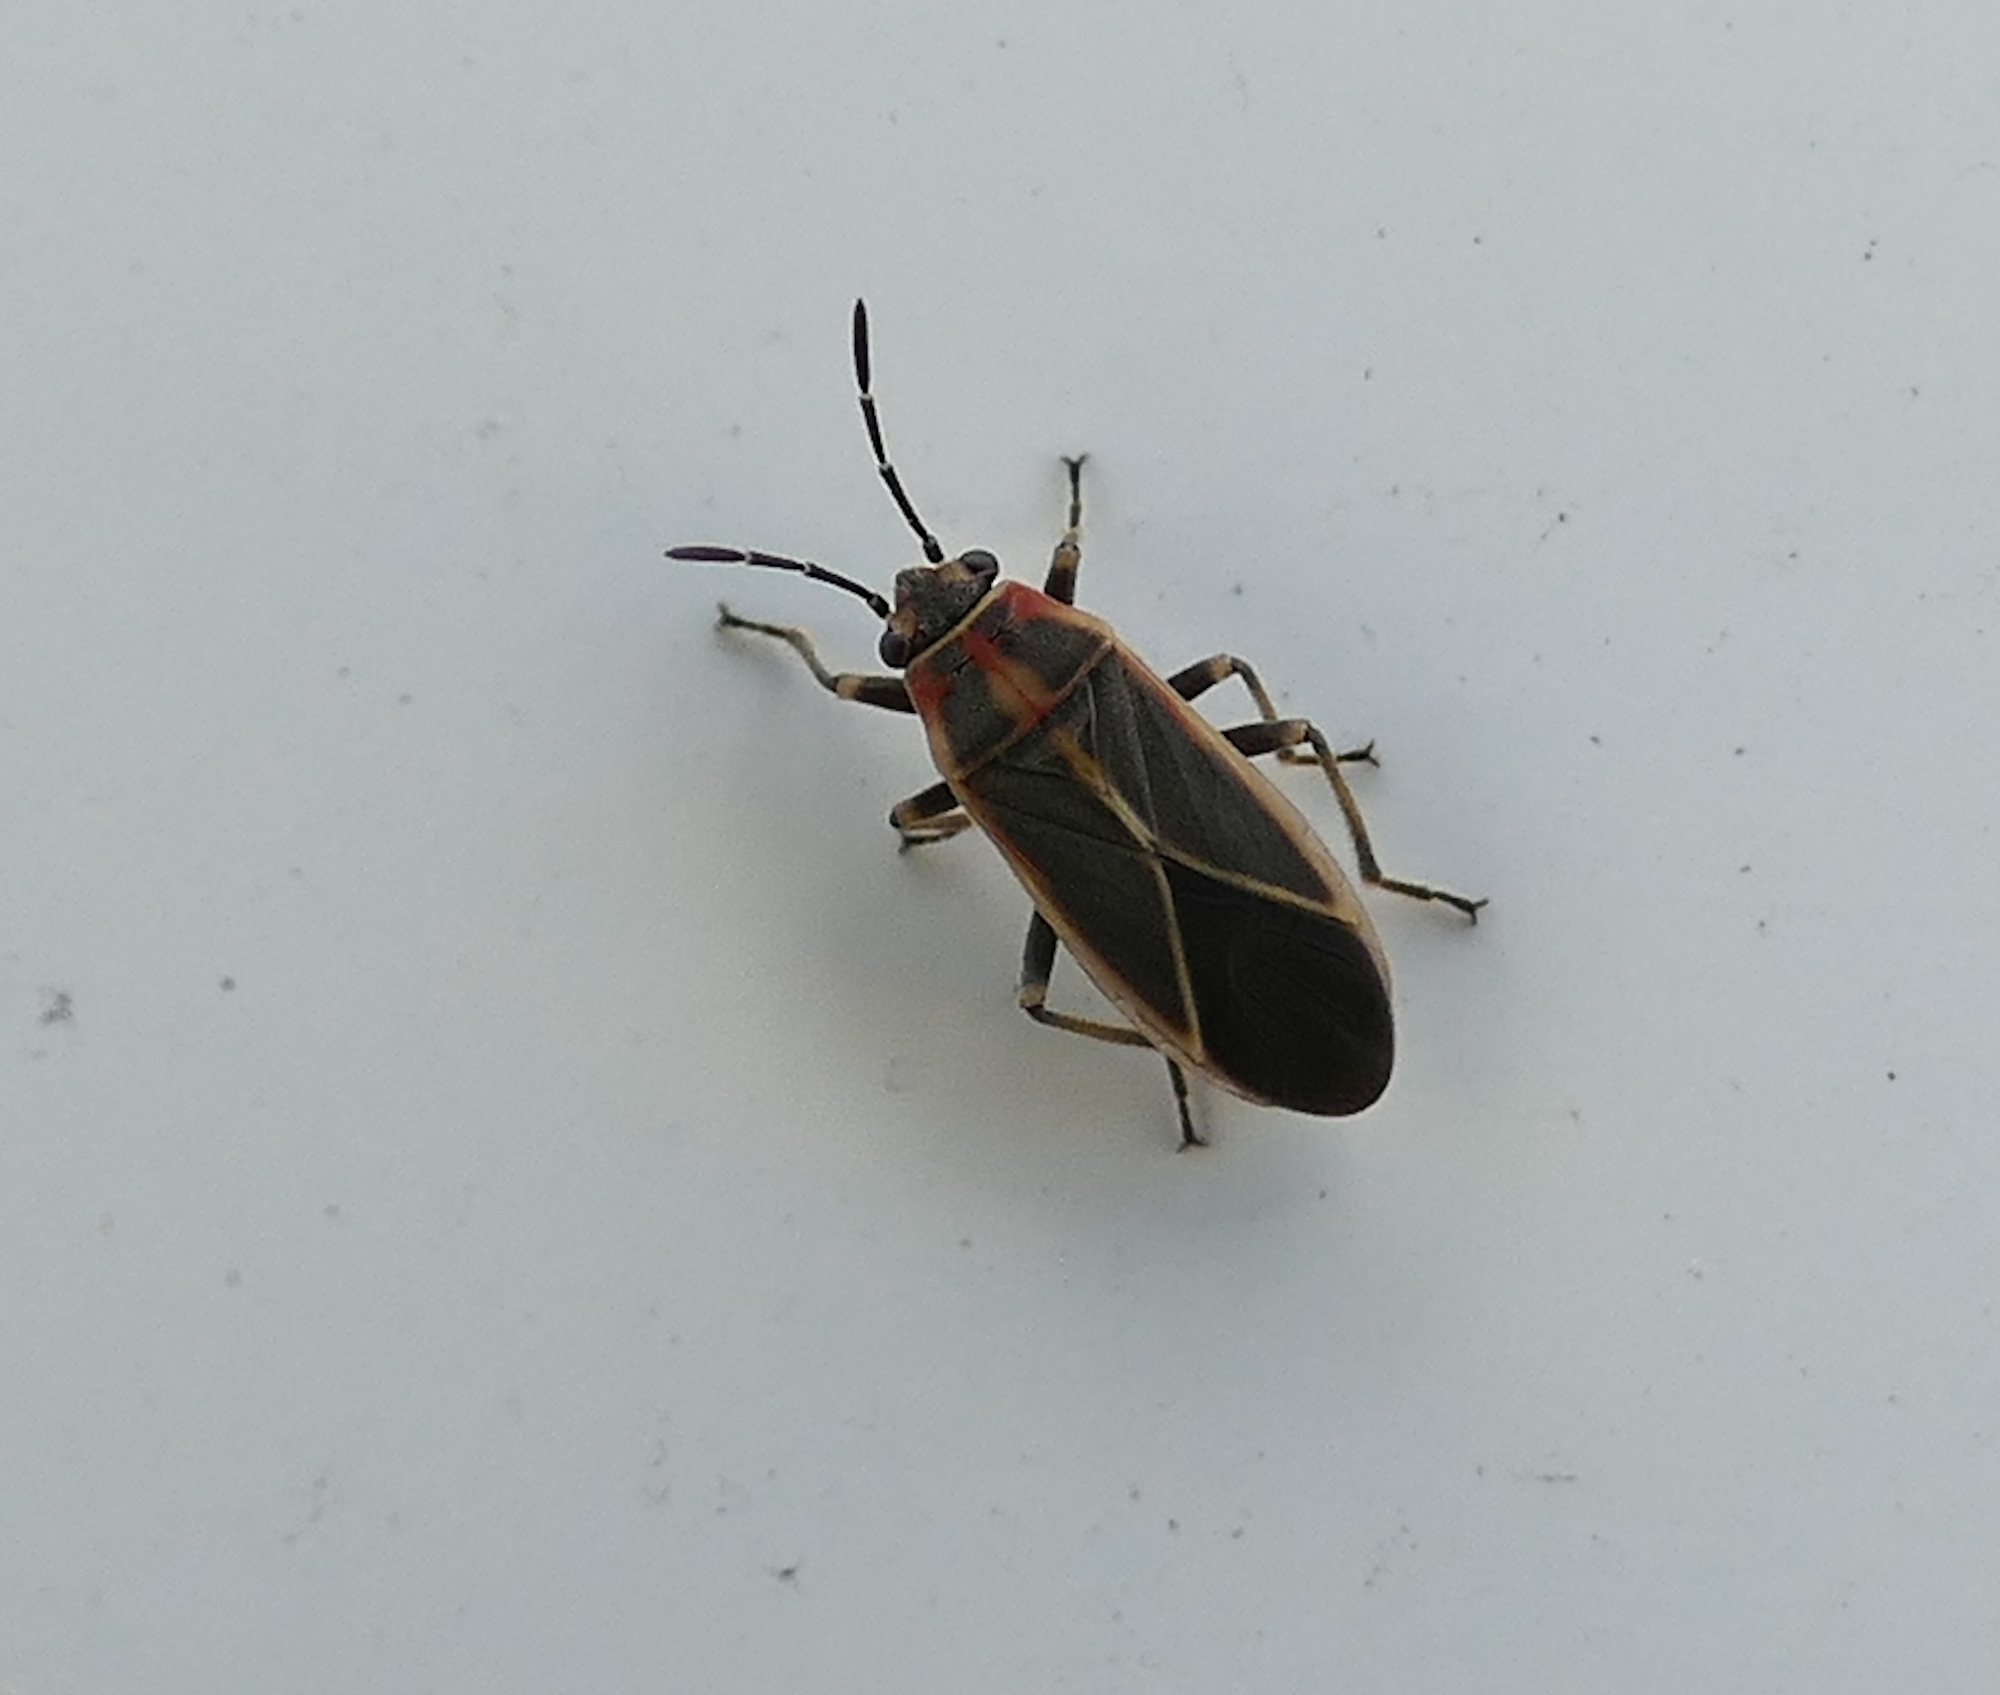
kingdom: Animalia
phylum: Arthropoda
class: Insecta
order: Hemiptera
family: Lygaeidae
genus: Ochrimnus
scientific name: Ochrimnus mimulus
